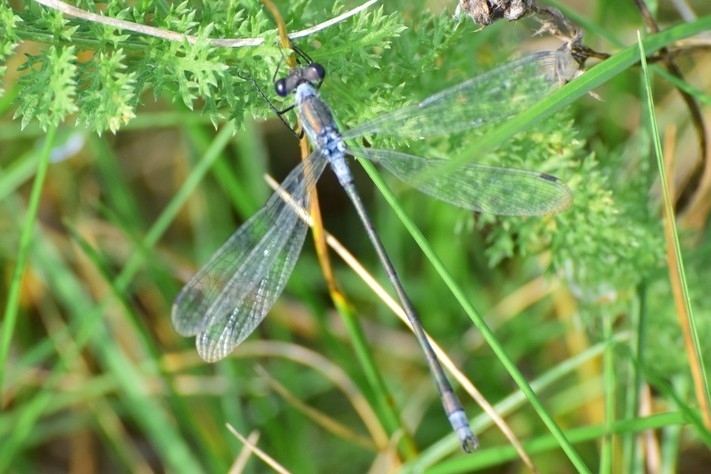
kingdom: Animalia
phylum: Arthropoda
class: Insecta
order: Odonata
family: Lestidae
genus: Lestes
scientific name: Lestes sponsa
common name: Common spreadwing
